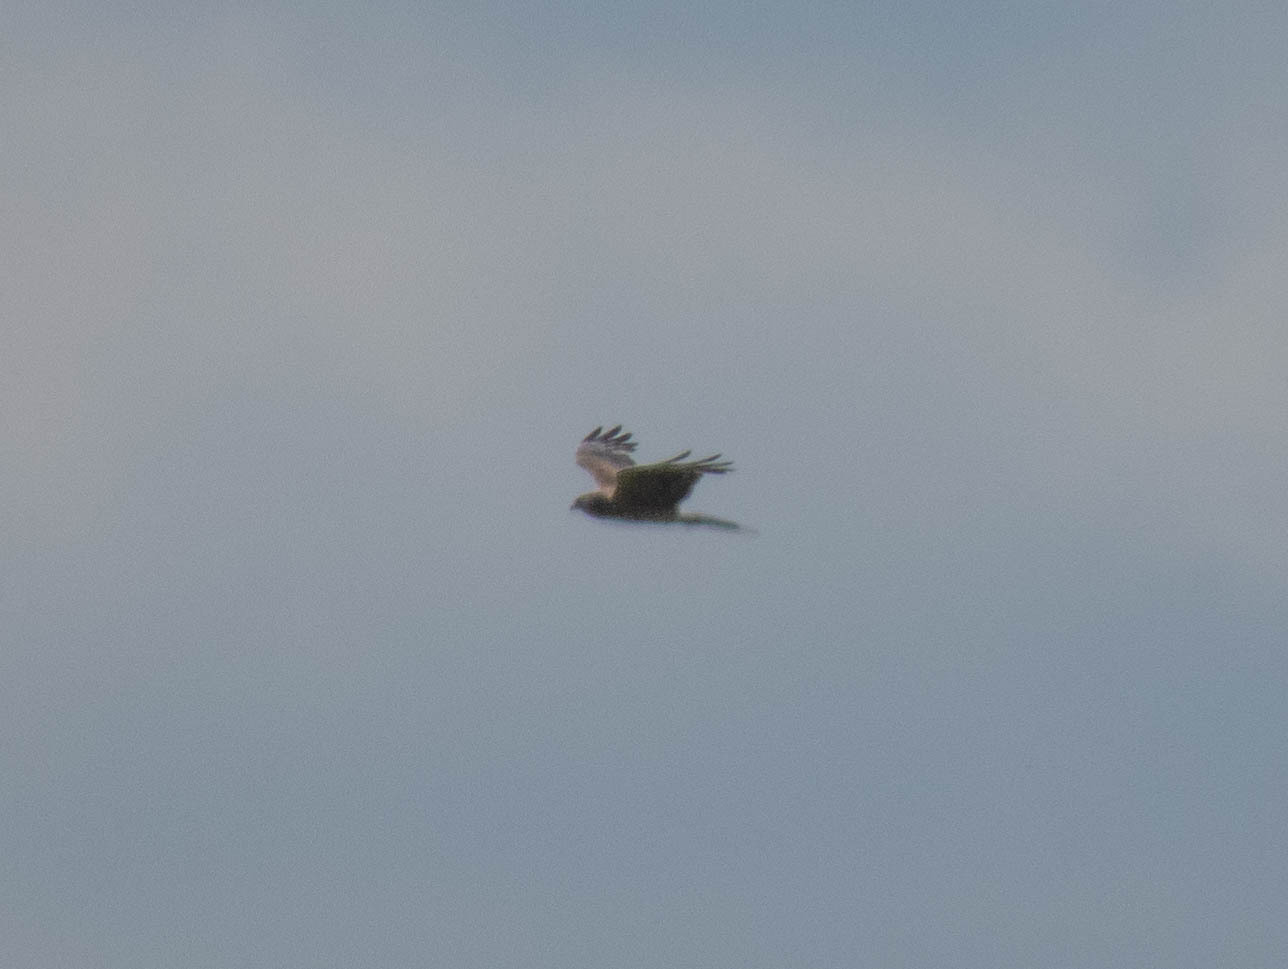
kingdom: Animalia
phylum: Chordata
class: Aves
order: Accipitriformes
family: Accipitridae
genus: Circus
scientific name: Circus cyaneus
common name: Hen harrier
